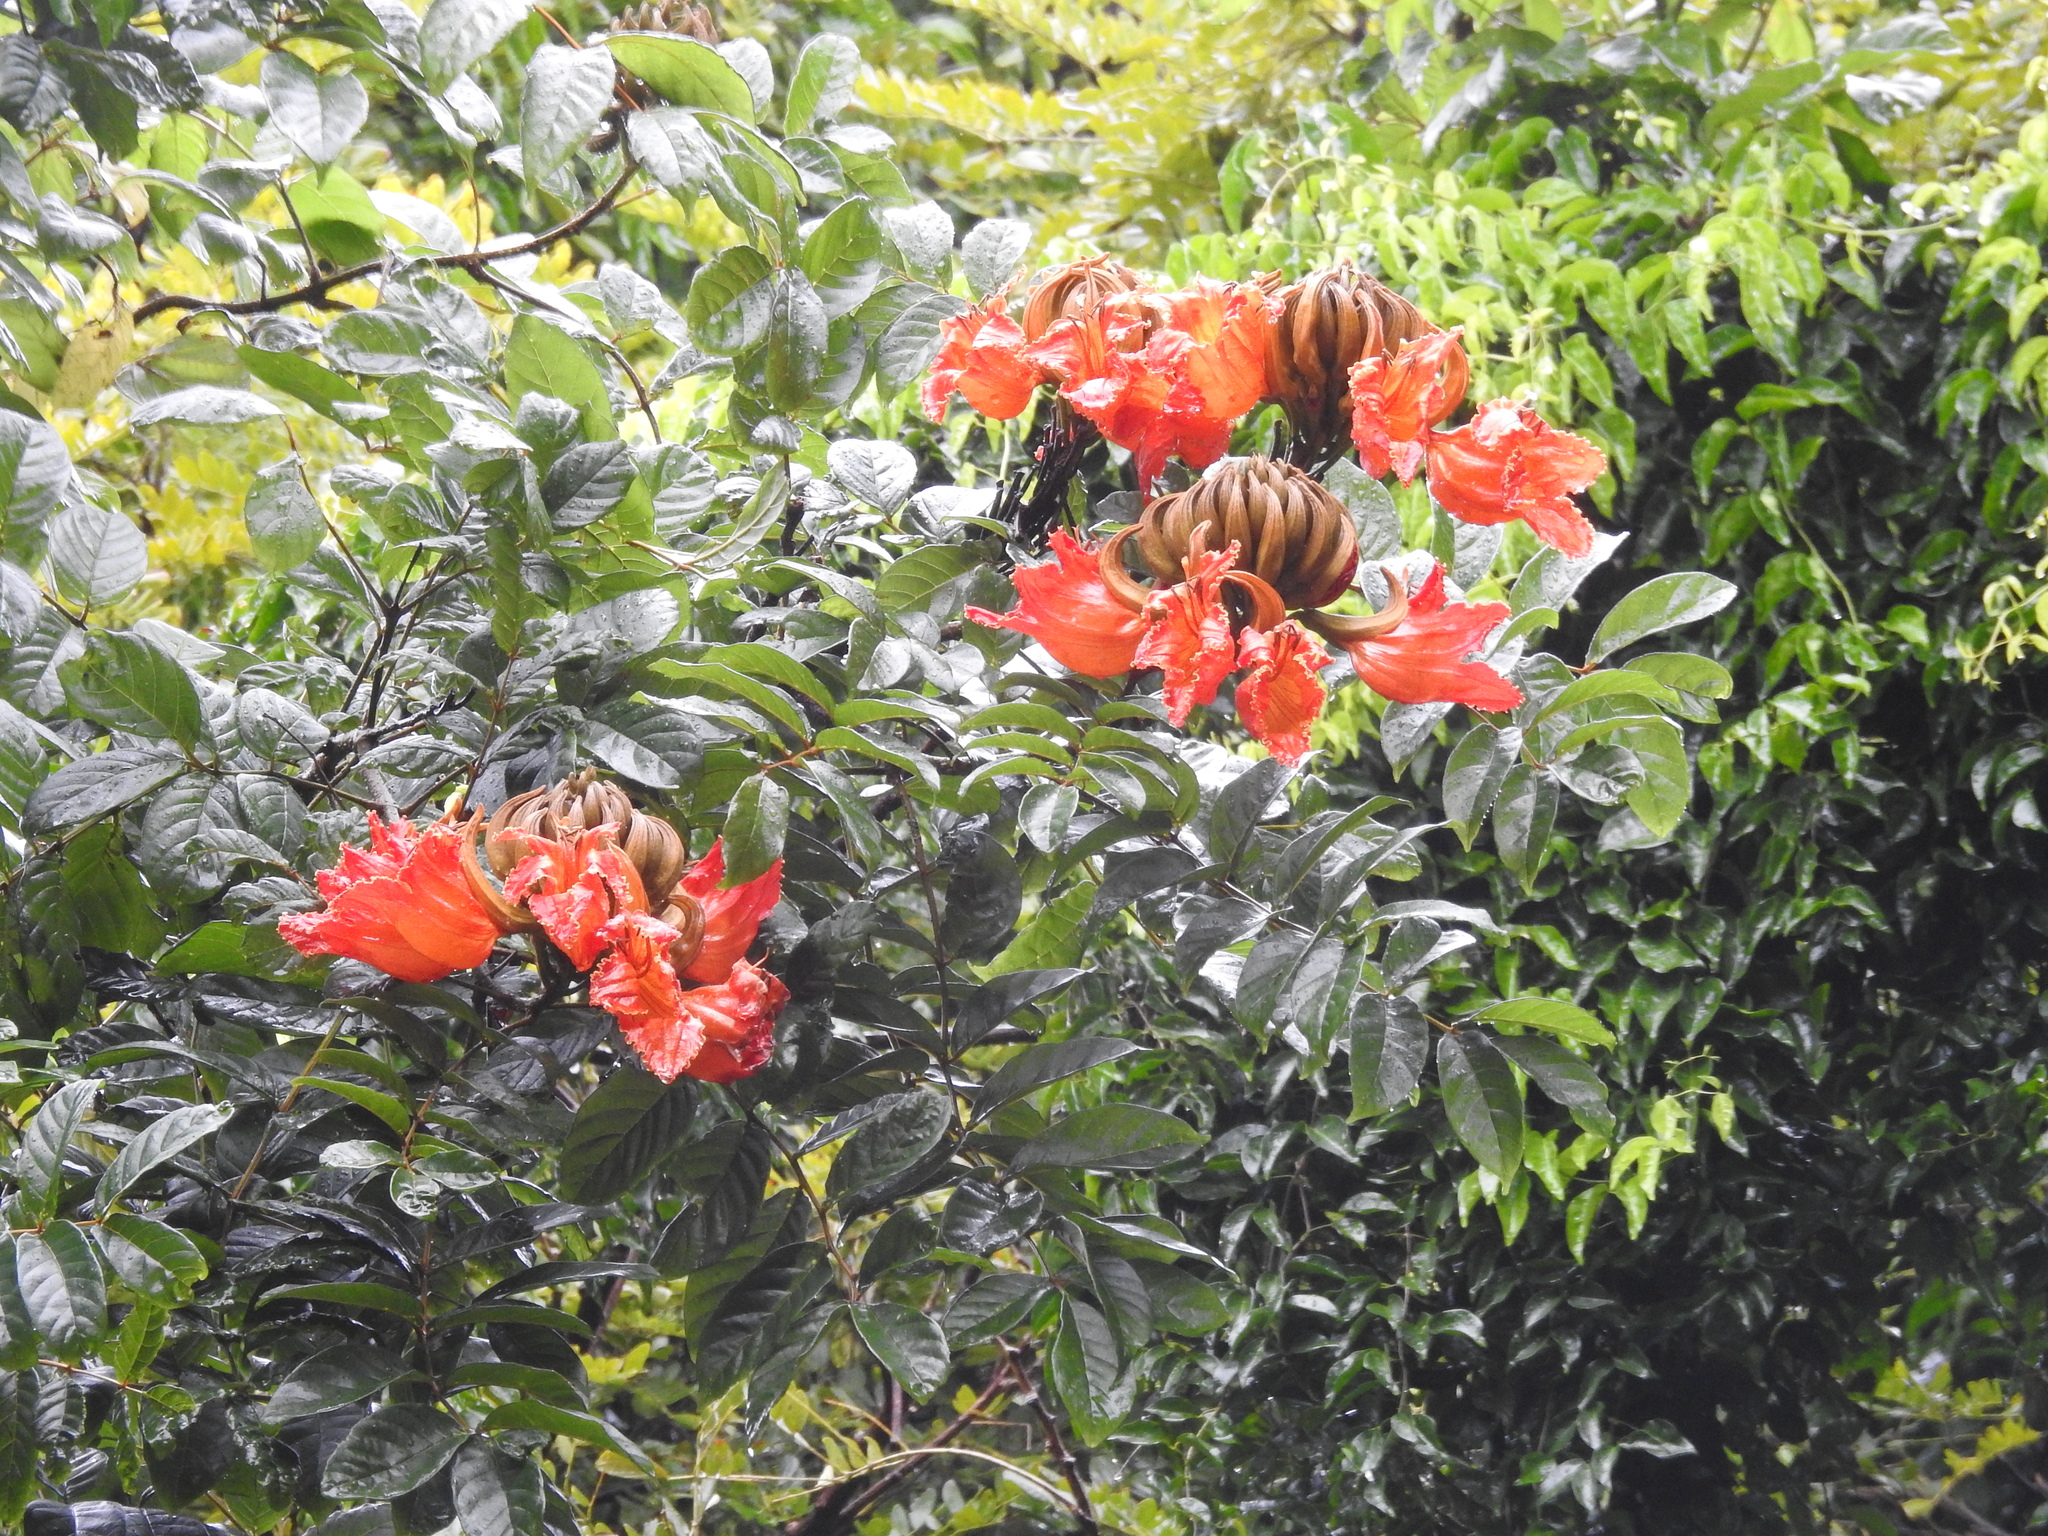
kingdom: Plantae
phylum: Tracheophyta
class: Magnoliopsida
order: Lamiales
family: Bignoniaceae
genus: Spathodea
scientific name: Spathodea campanulata
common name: African tuliptree
